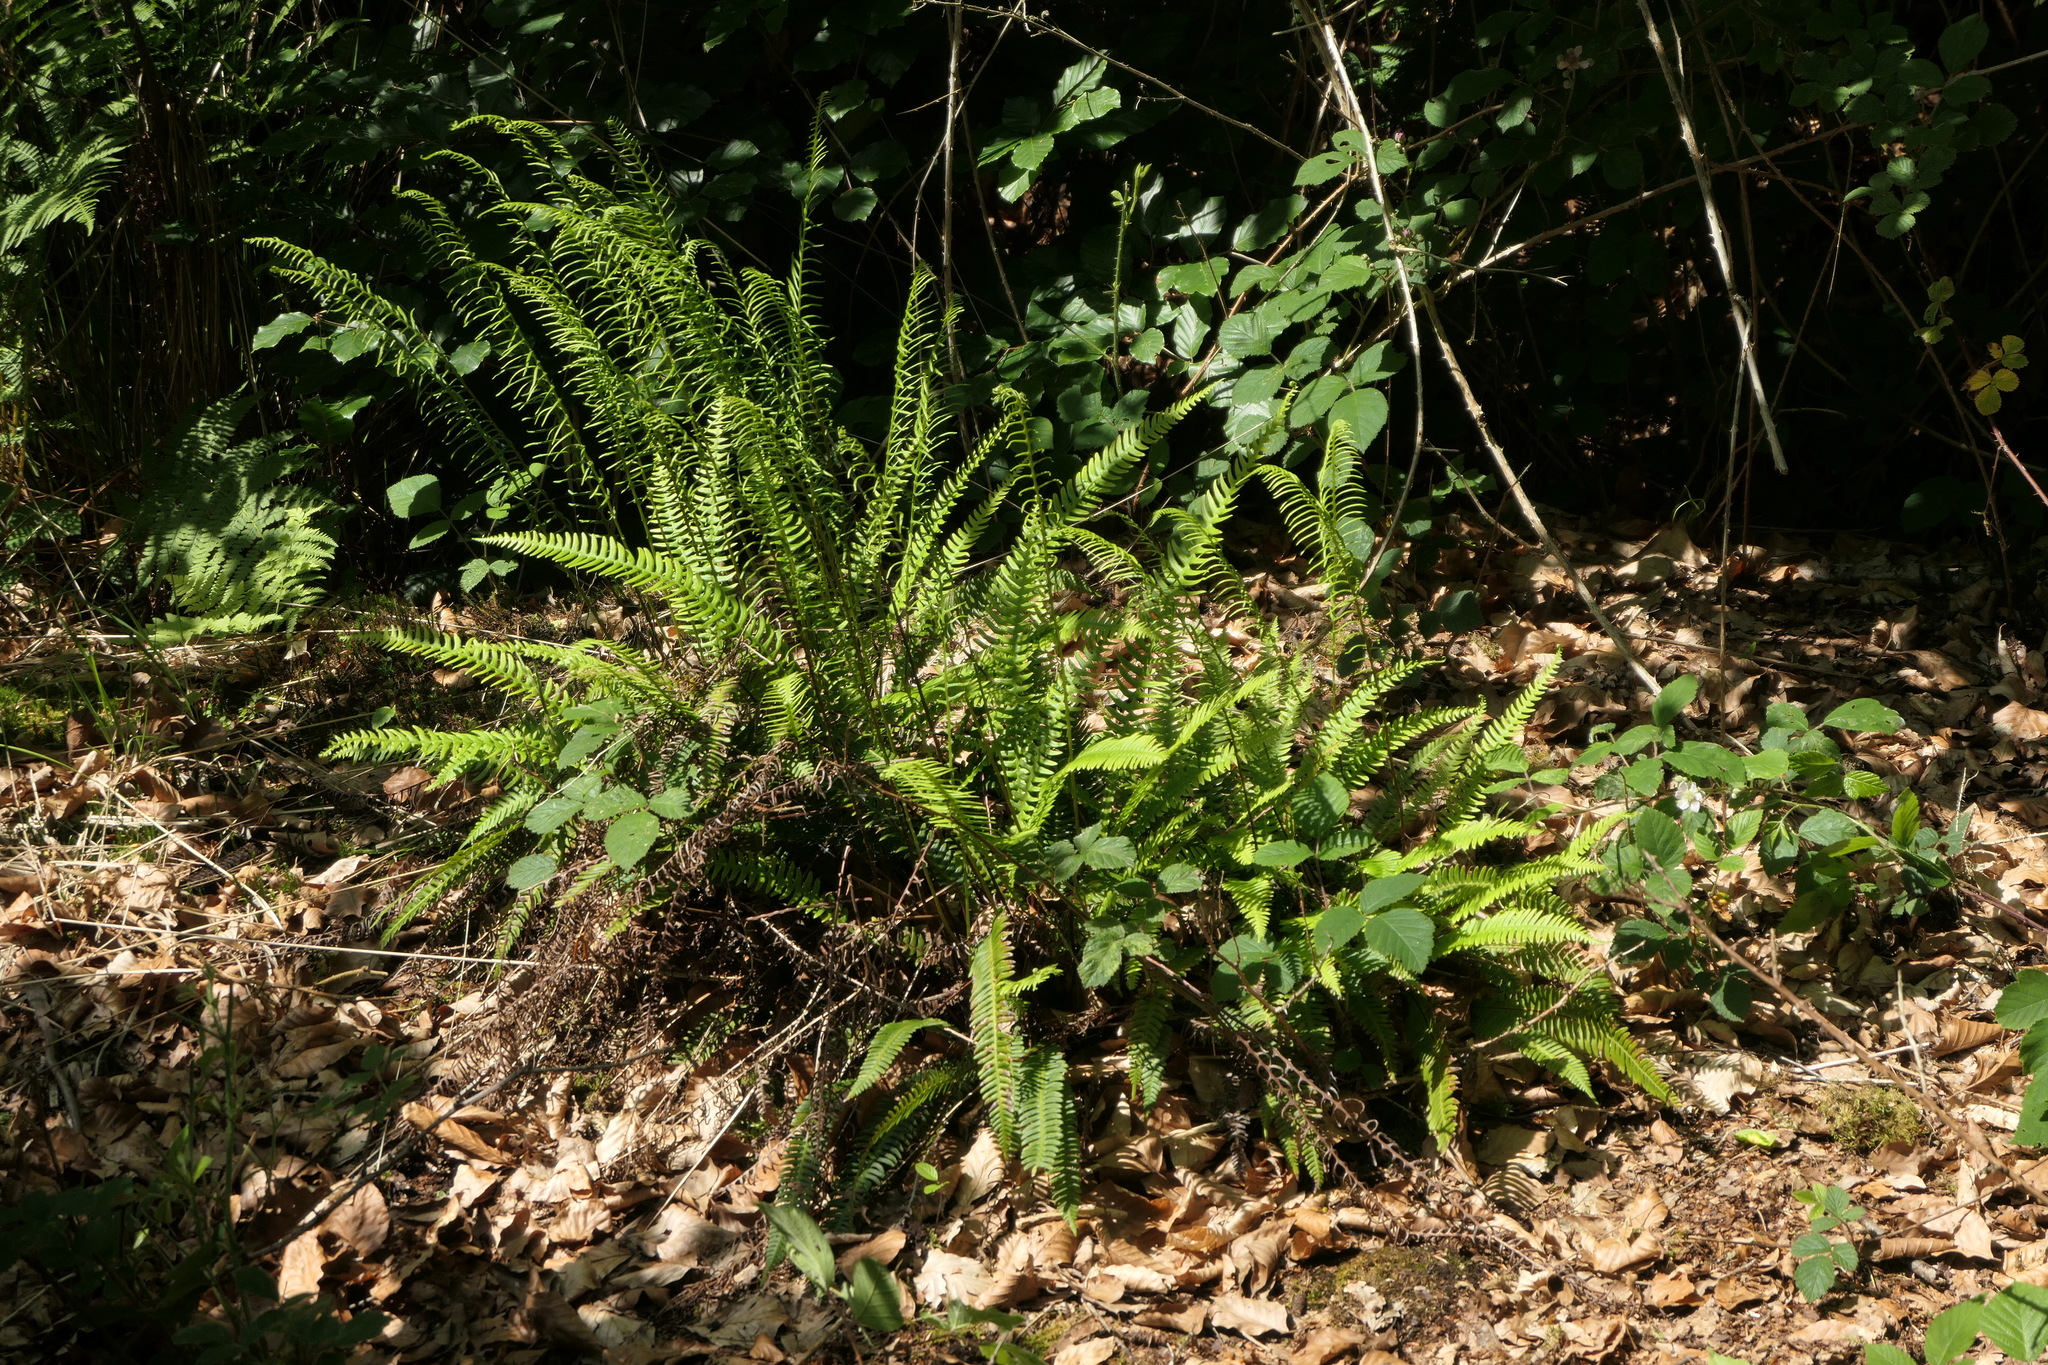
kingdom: Plantae
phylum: Tracheophyta
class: Polypodiopsida
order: Polypodiales
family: Blechnaceae
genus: Struthiopteris
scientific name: Struthiopteris spicant
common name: Deer fern
